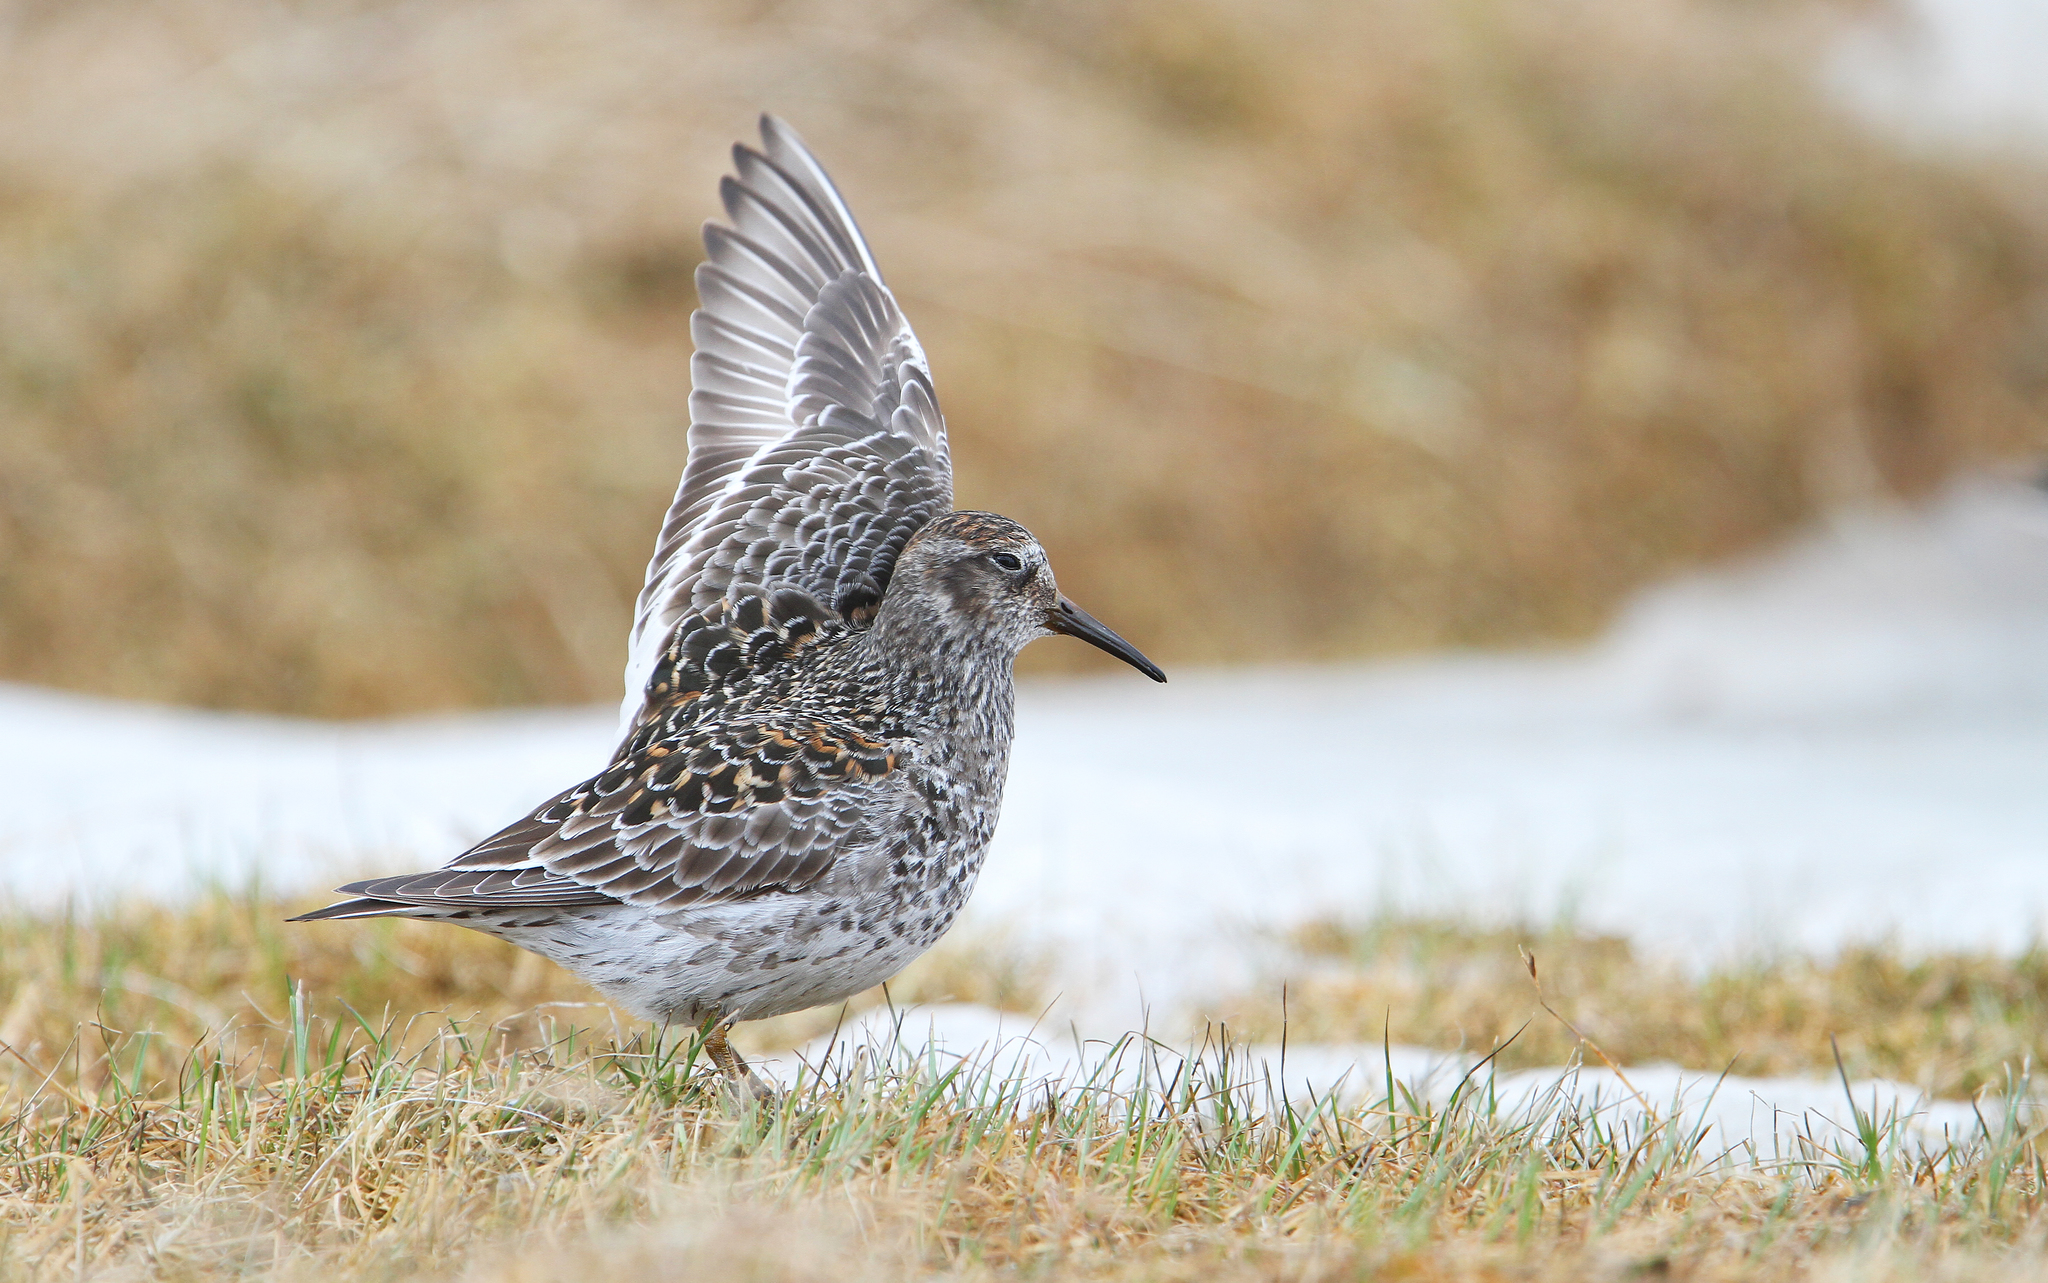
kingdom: Animalia
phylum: Chordata
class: Aves
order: Charadriiformes
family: Scolopacidae
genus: Calidris
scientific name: Calidris maritima
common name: Purple sandpiper
